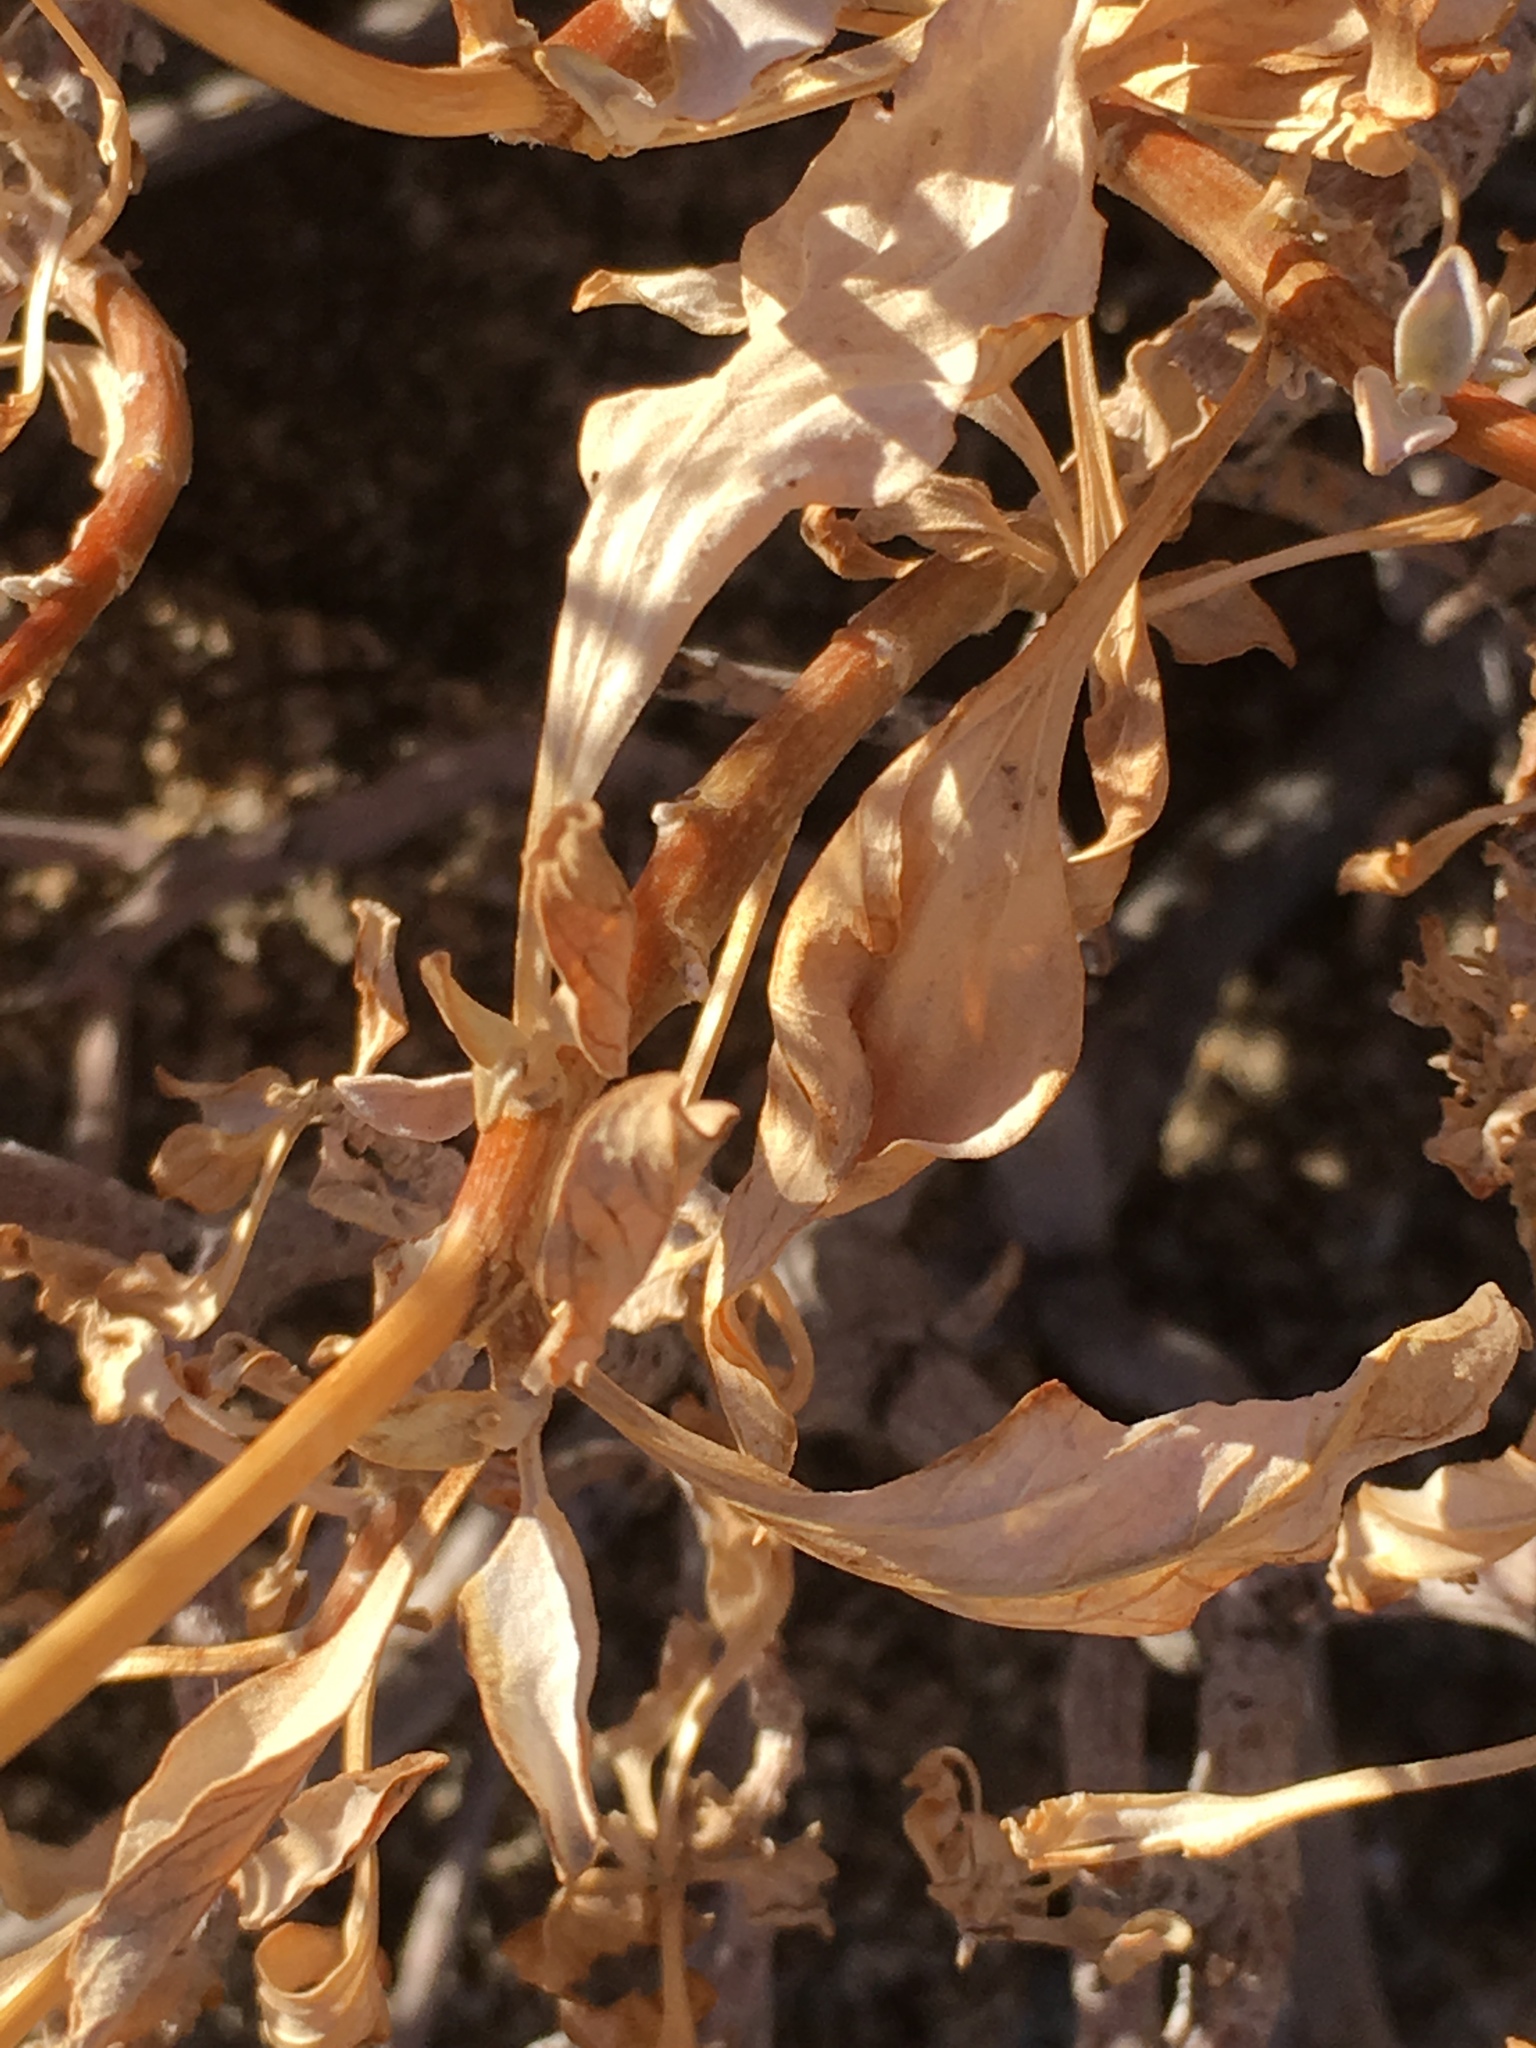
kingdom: Plantae
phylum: Tracheophyta
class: Magnoliopsida
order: Asterales
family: Asteraceae
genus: Encelia
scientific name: Encelia farinosa
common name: Brittlebush
